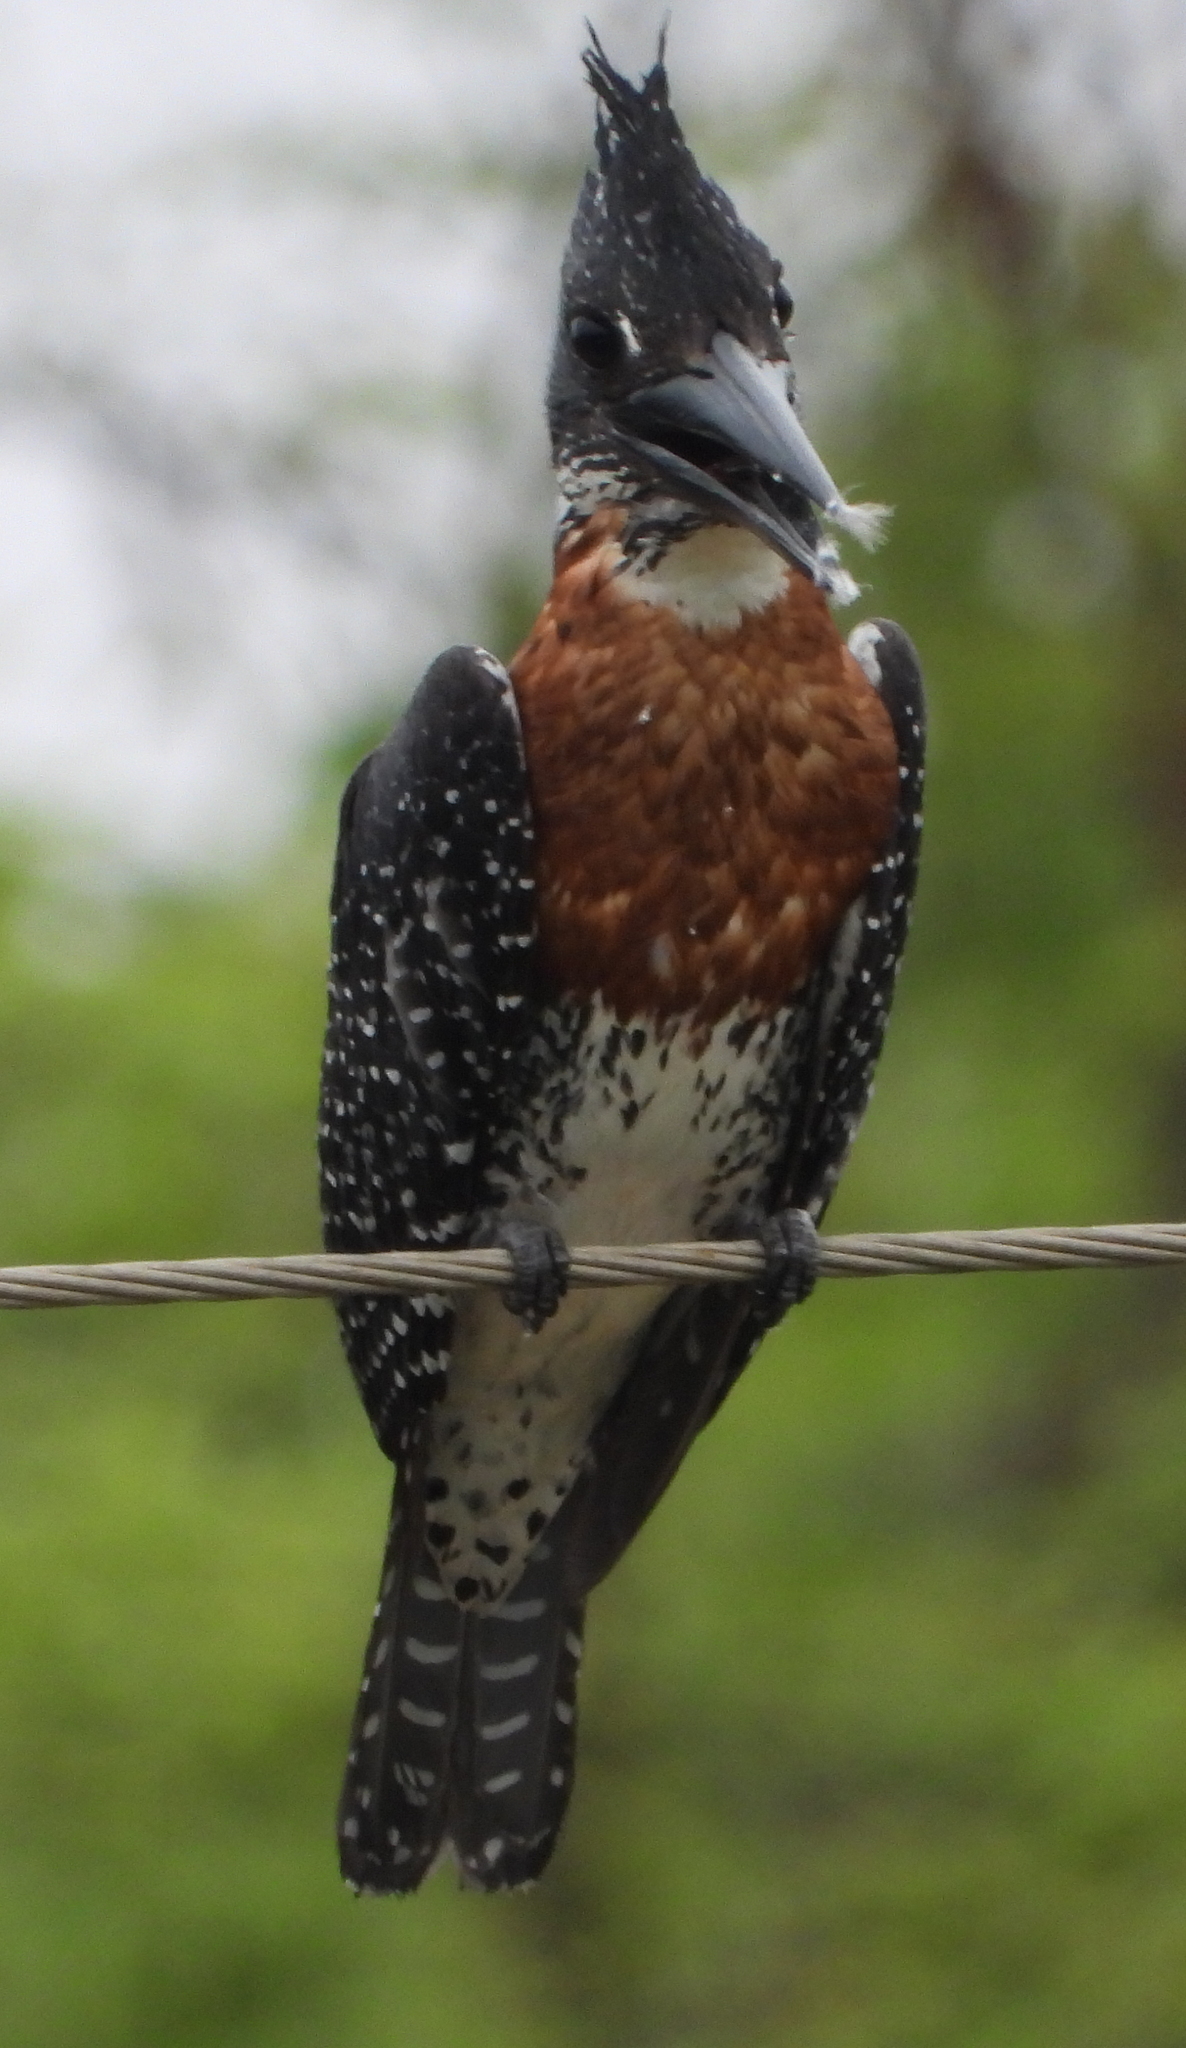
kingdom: Animalia
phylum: Chordata
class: Aves
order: Coraciiformes
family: Alcedinidae
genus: Megaceryle
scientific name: Megaceryle maxima
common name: Giant kingfisher
